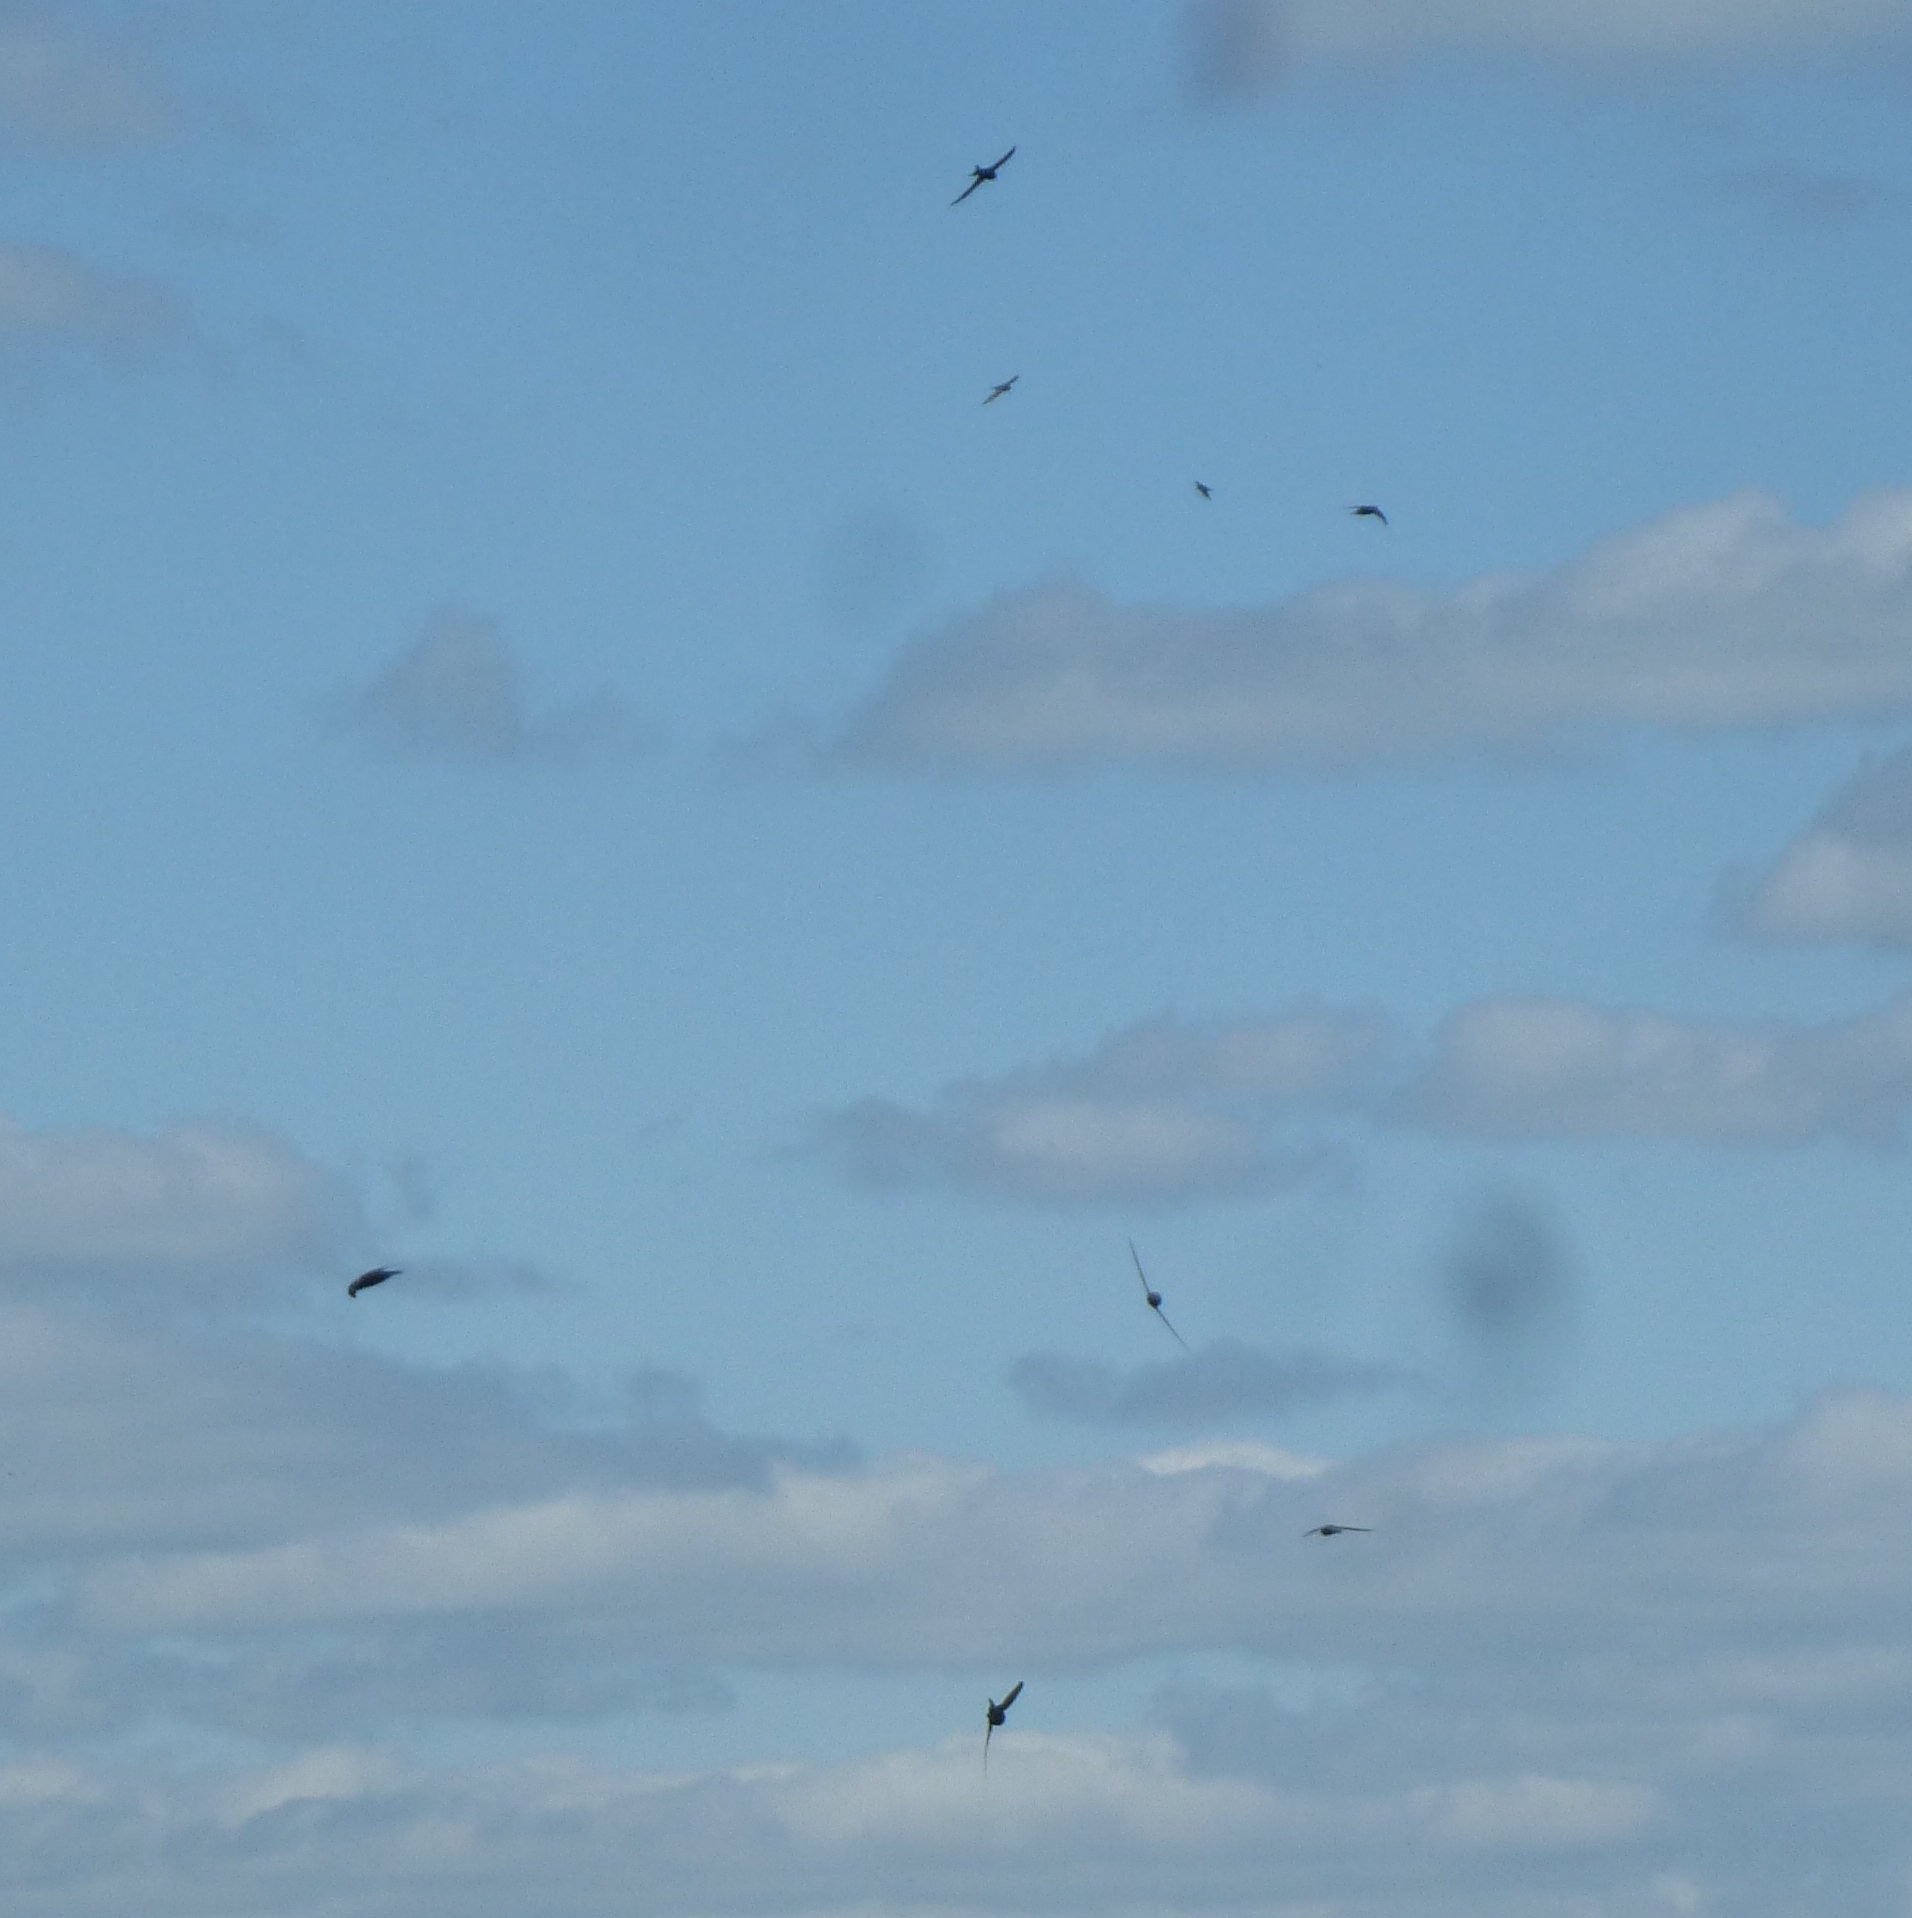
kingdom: Animalia
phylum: Chordata
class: Aves
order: Apodiformes
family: Apodidae
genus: Apus
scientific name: Apus apus
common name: Common swift
